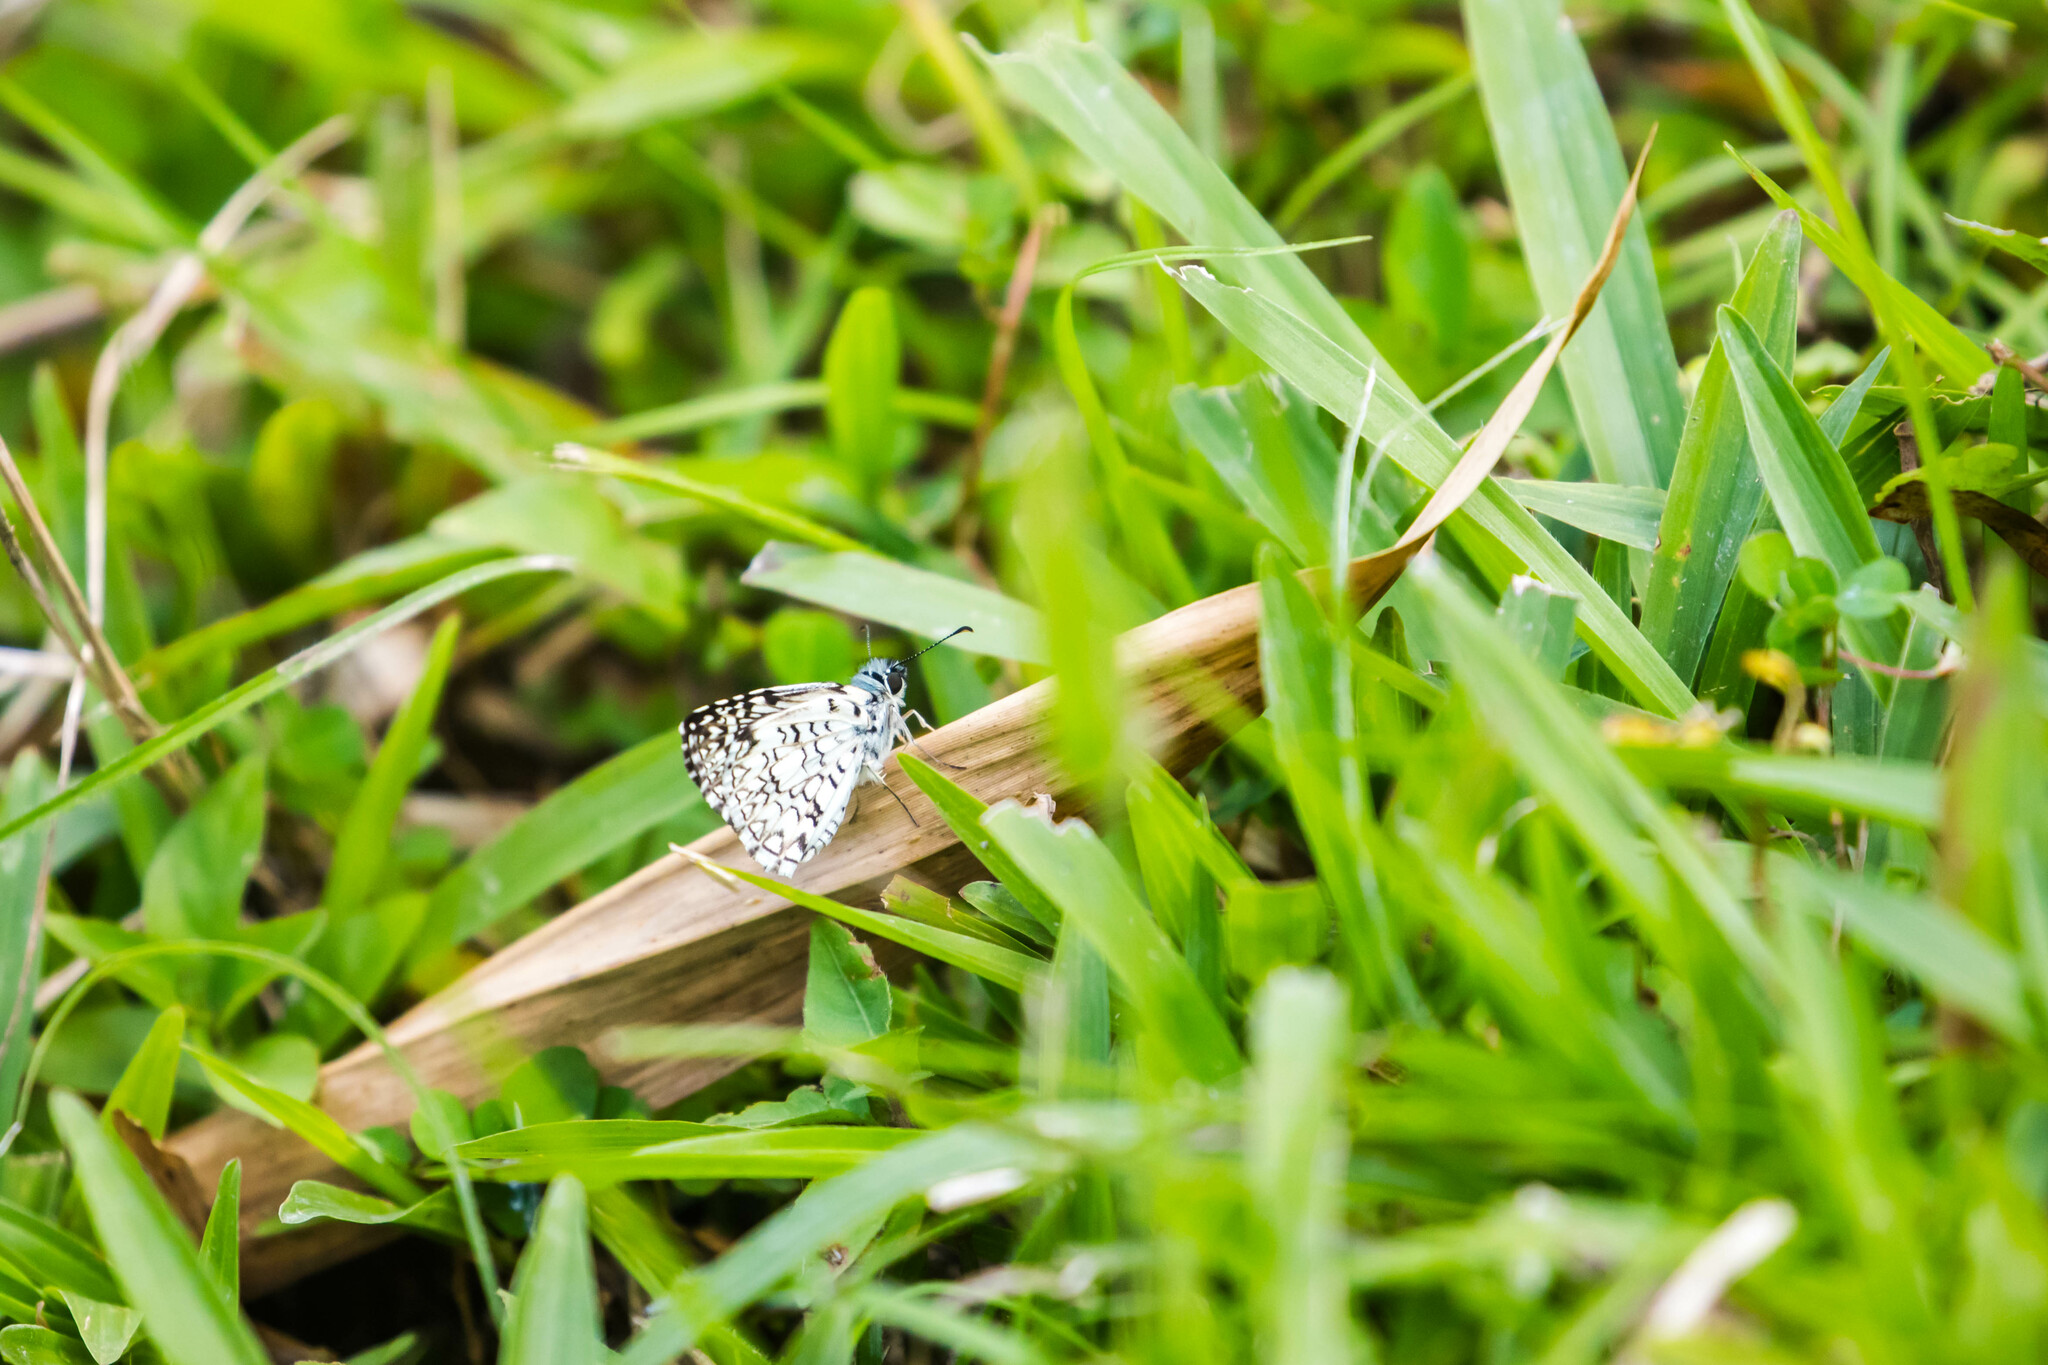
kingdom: Animalia
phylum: Arthropoda
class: Insecta
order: Lepidoptera
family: Hesperiidae
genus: Pyrgus
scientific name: Pyrgus oileus
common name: Tropical checkered-skipper
